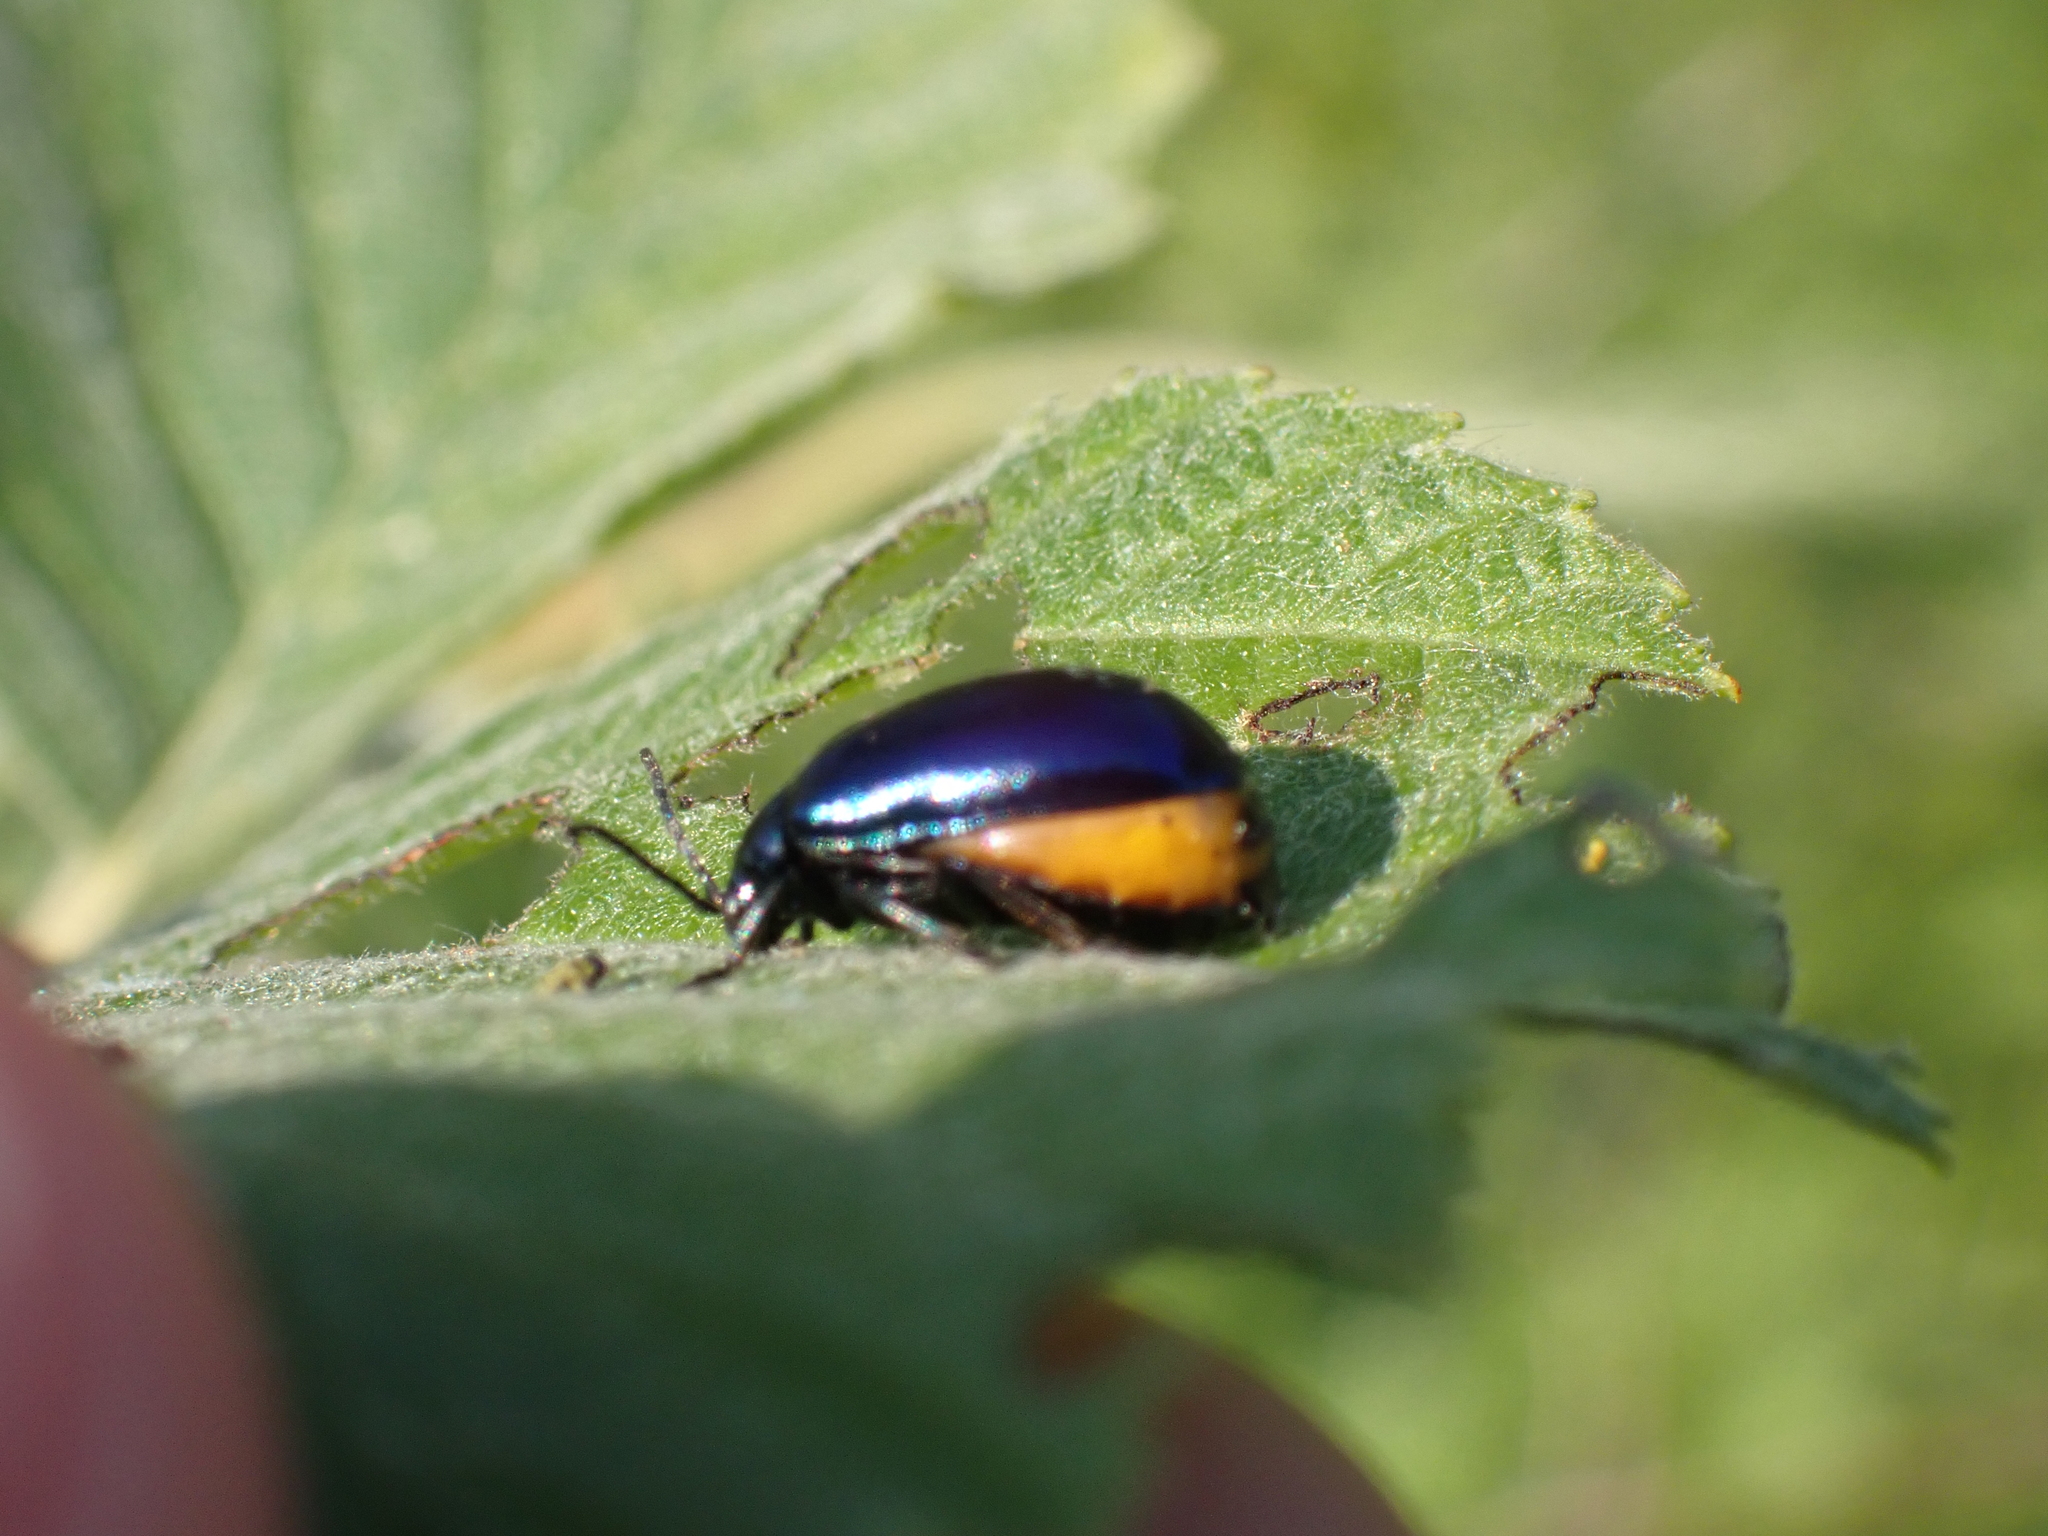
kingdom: Animalia
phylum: Arthropoda
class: Insecta
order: Coleoptera
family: Chrysomelidae
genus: Agelastica
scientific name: Agelastica alni
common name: Alder leaf beetle
